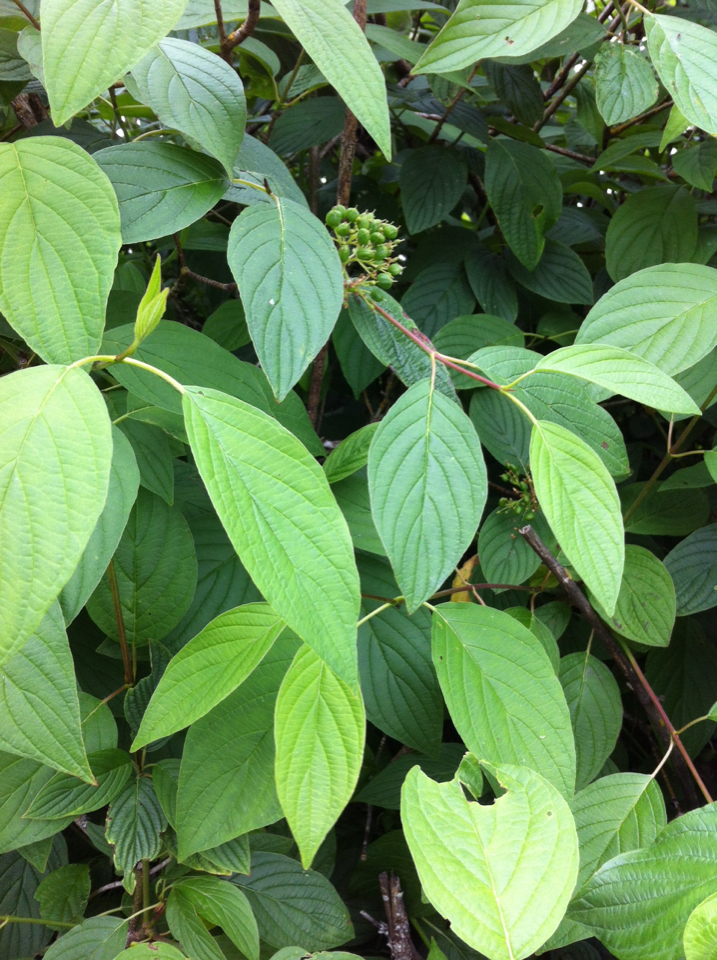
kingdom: Plantae
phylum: Tracheophyta
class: Magnoliopsida
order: Cornales
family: Cornaceae
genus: Cornus
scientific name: Cornus sericea
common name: Red-osier dogwood
